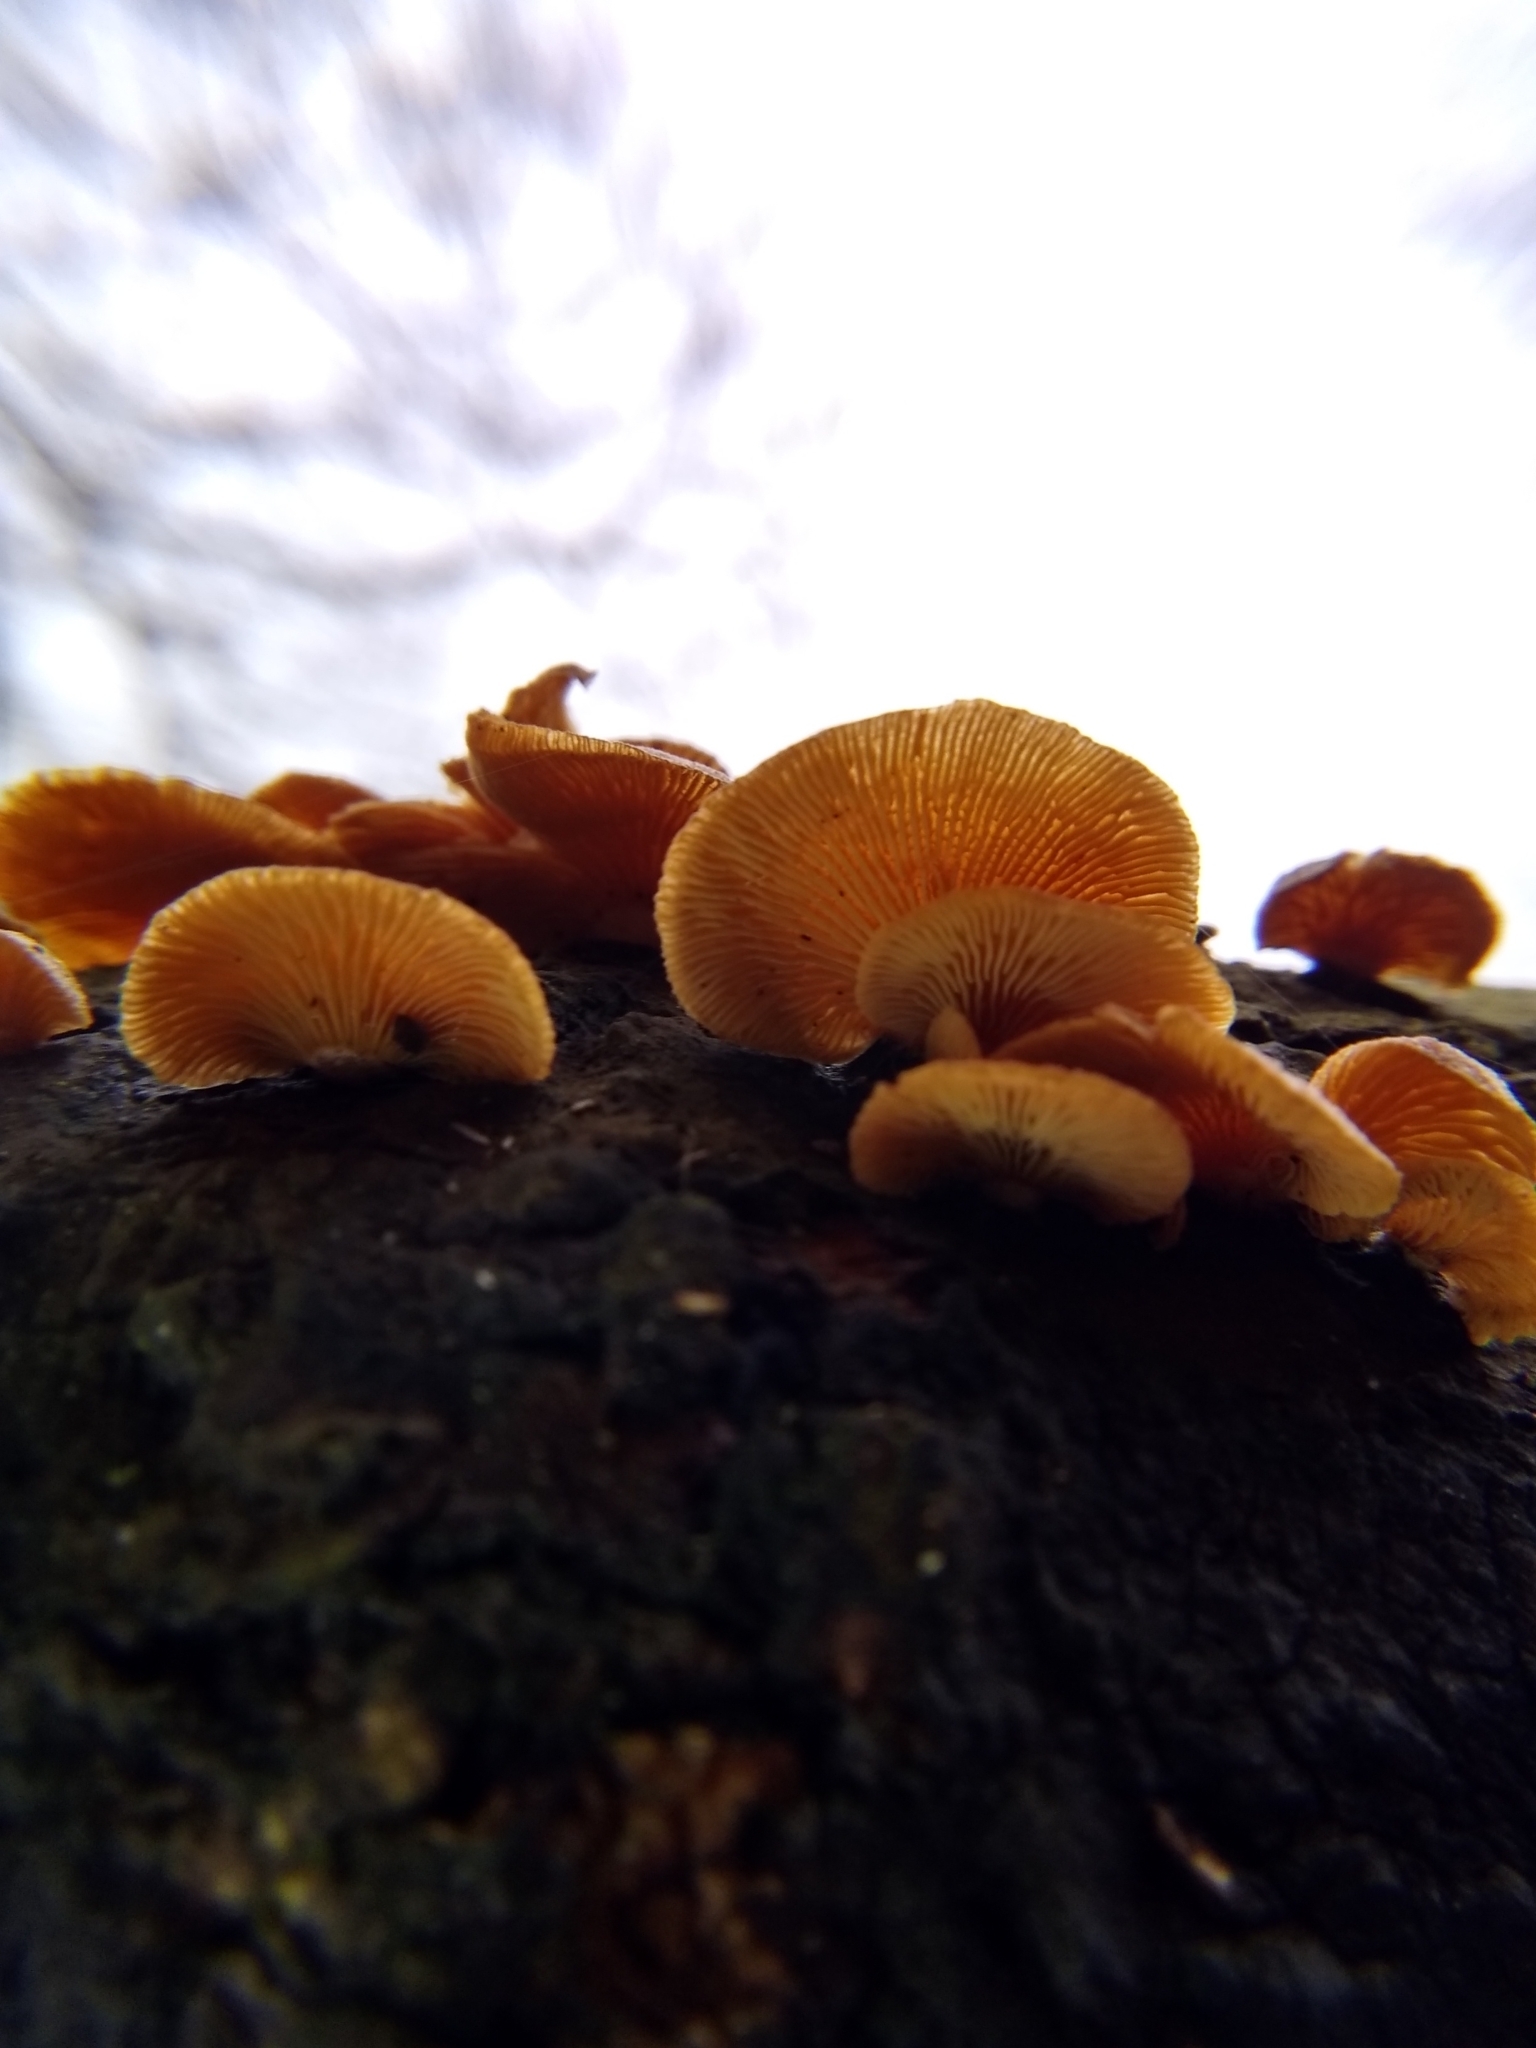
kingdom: Fungi
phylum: Basidiomycota
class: Agaricomycetes
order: Agaricales
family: Mycenaceae
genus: Panellus
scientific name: Panellus stipticus
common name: Bitter oysterling
